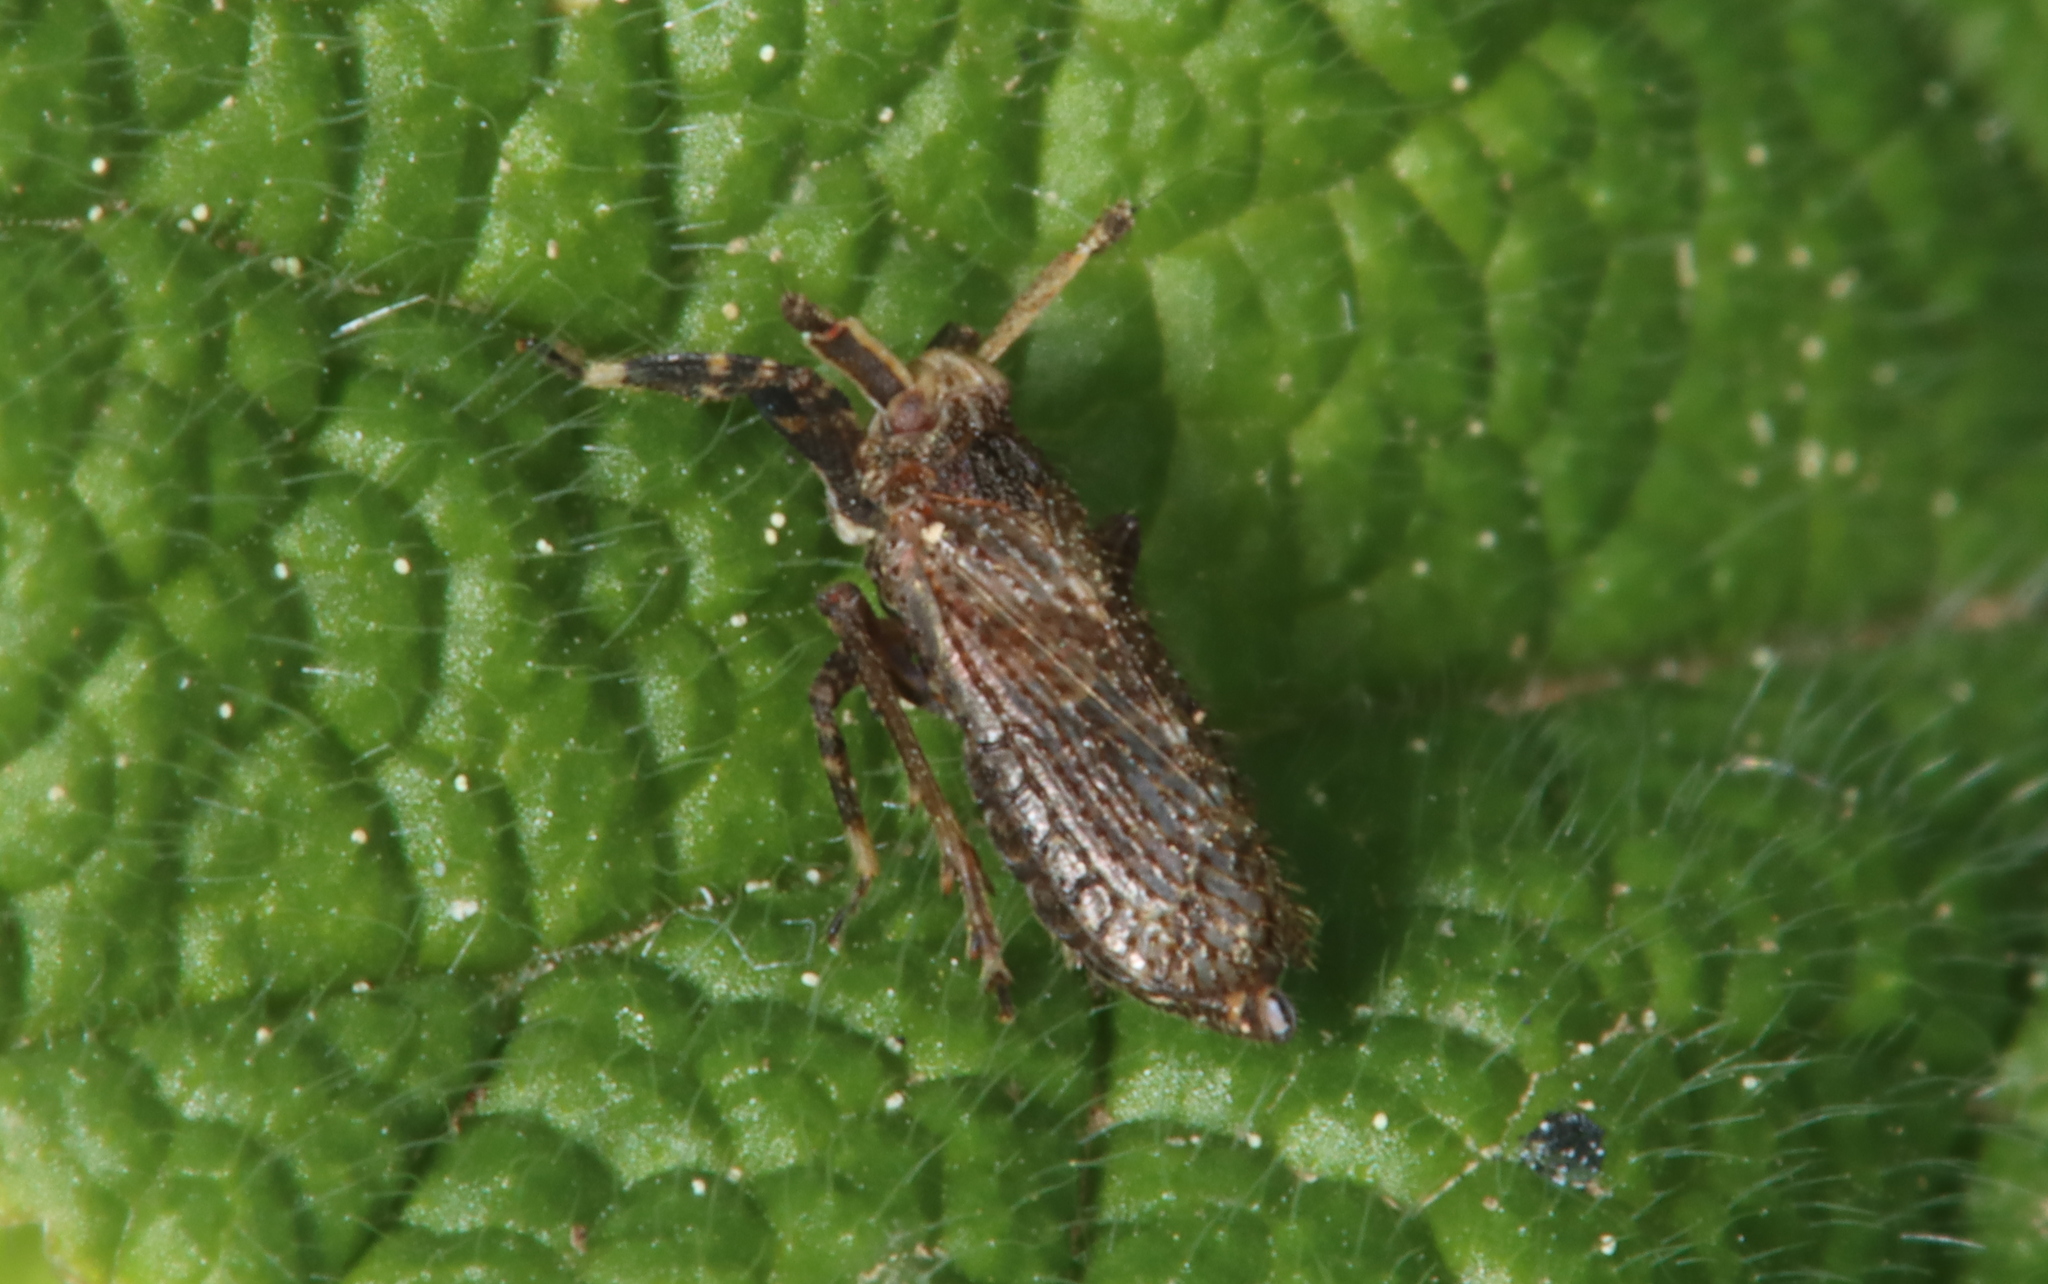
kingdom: Animalia
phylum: Arthropoda
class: Insecta
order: Hemiptera
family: Delphacidae
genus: Asiraca
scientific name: Asiraca clavicornis
